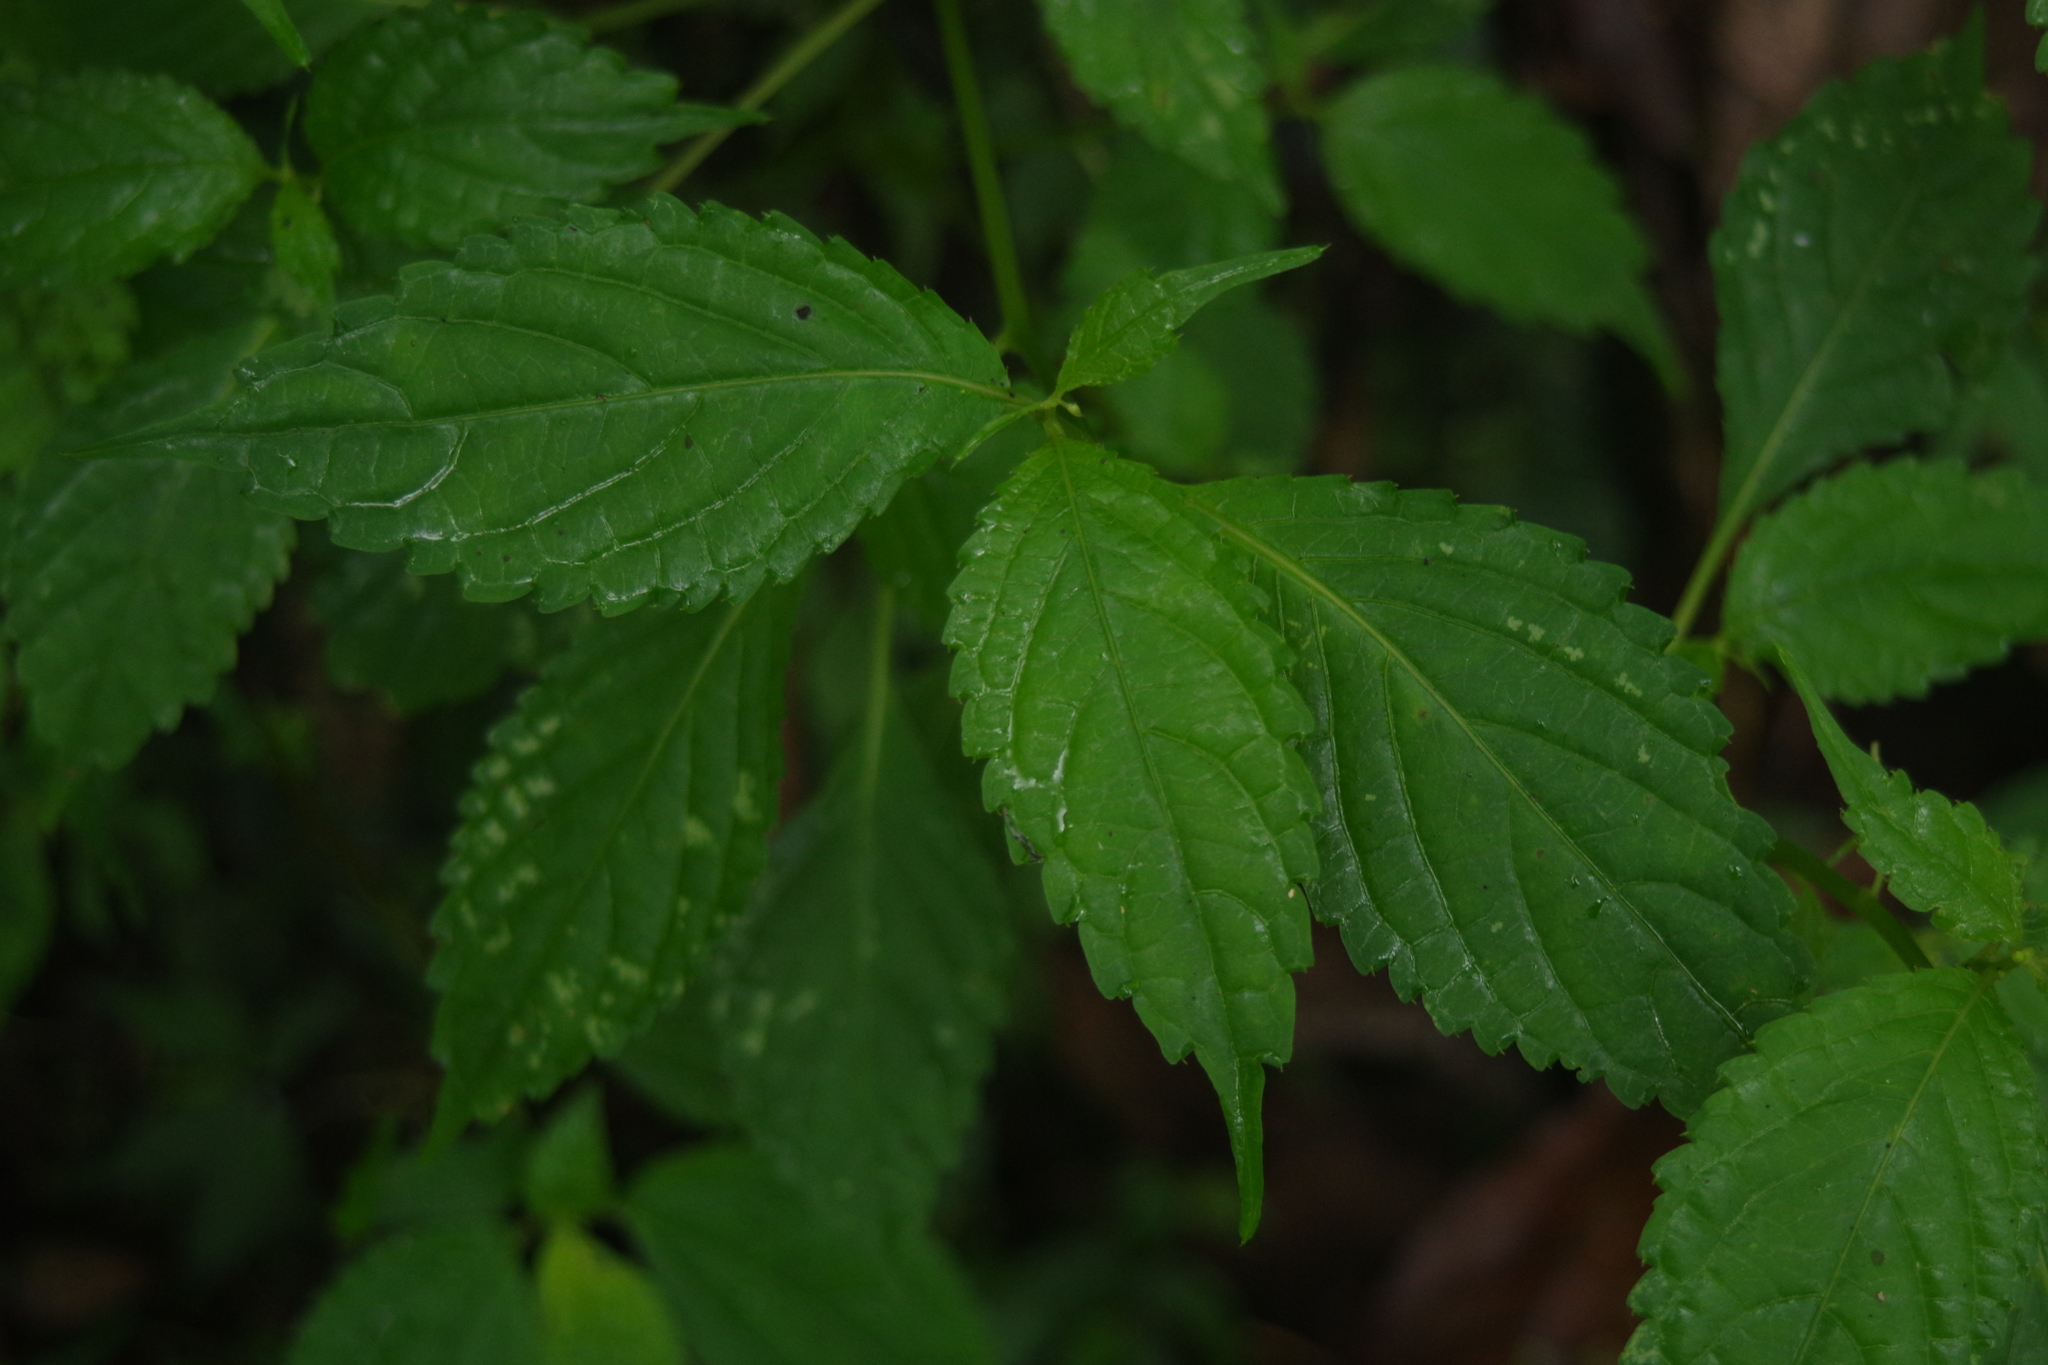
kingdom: Plantae
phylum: Tracheophyta
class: Magnoliopsida
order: Ericales
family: Balsaminaceae
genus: Impatiens
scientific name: Impatiens tayemonii
